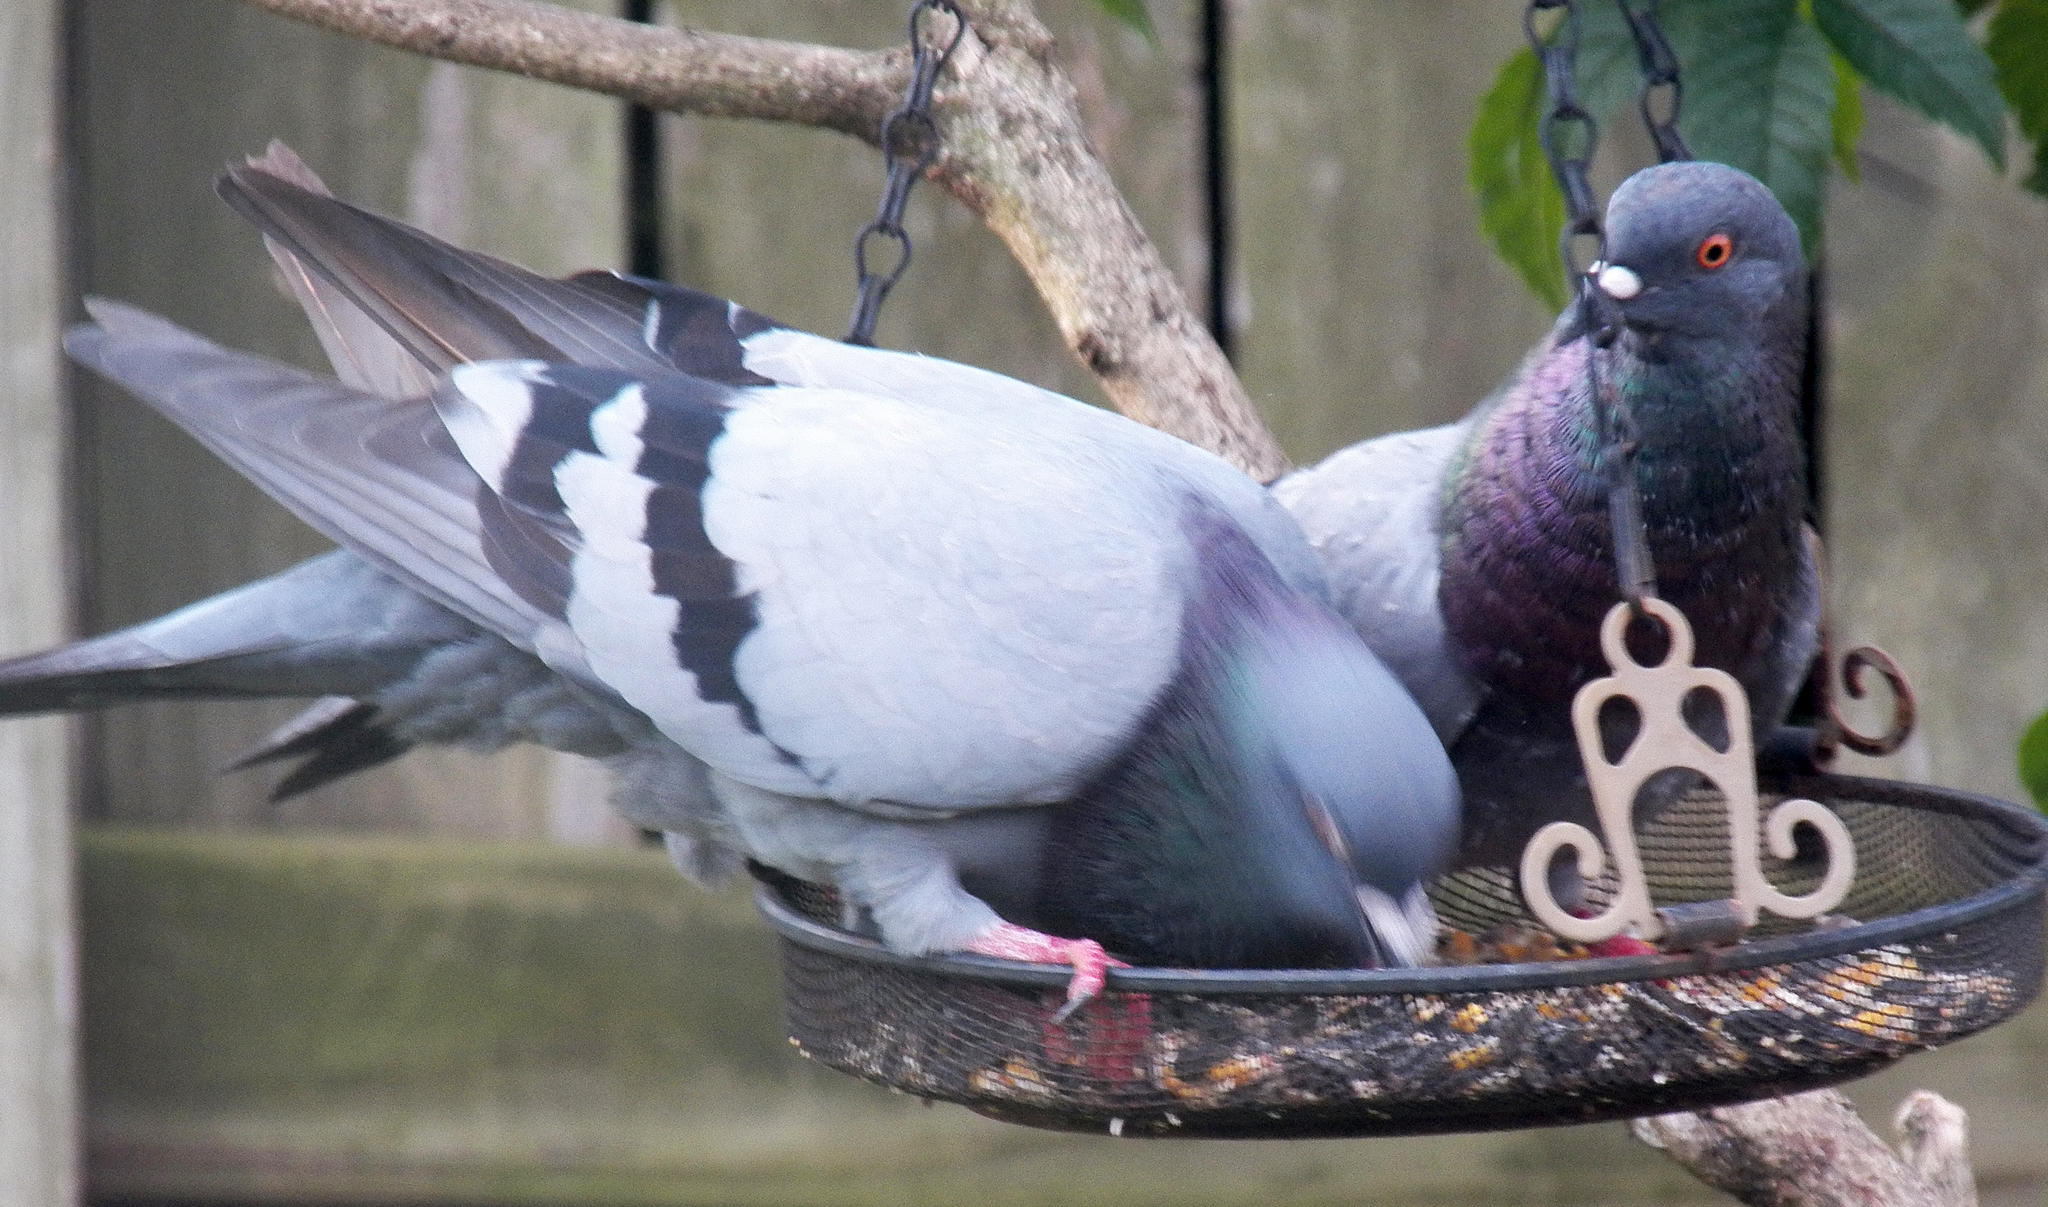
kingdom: Animalia
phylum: Chordata
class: Aves
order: Columbiformes
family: Columbidae
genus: Columba
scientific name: Columba livia
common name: Rock pigeon
